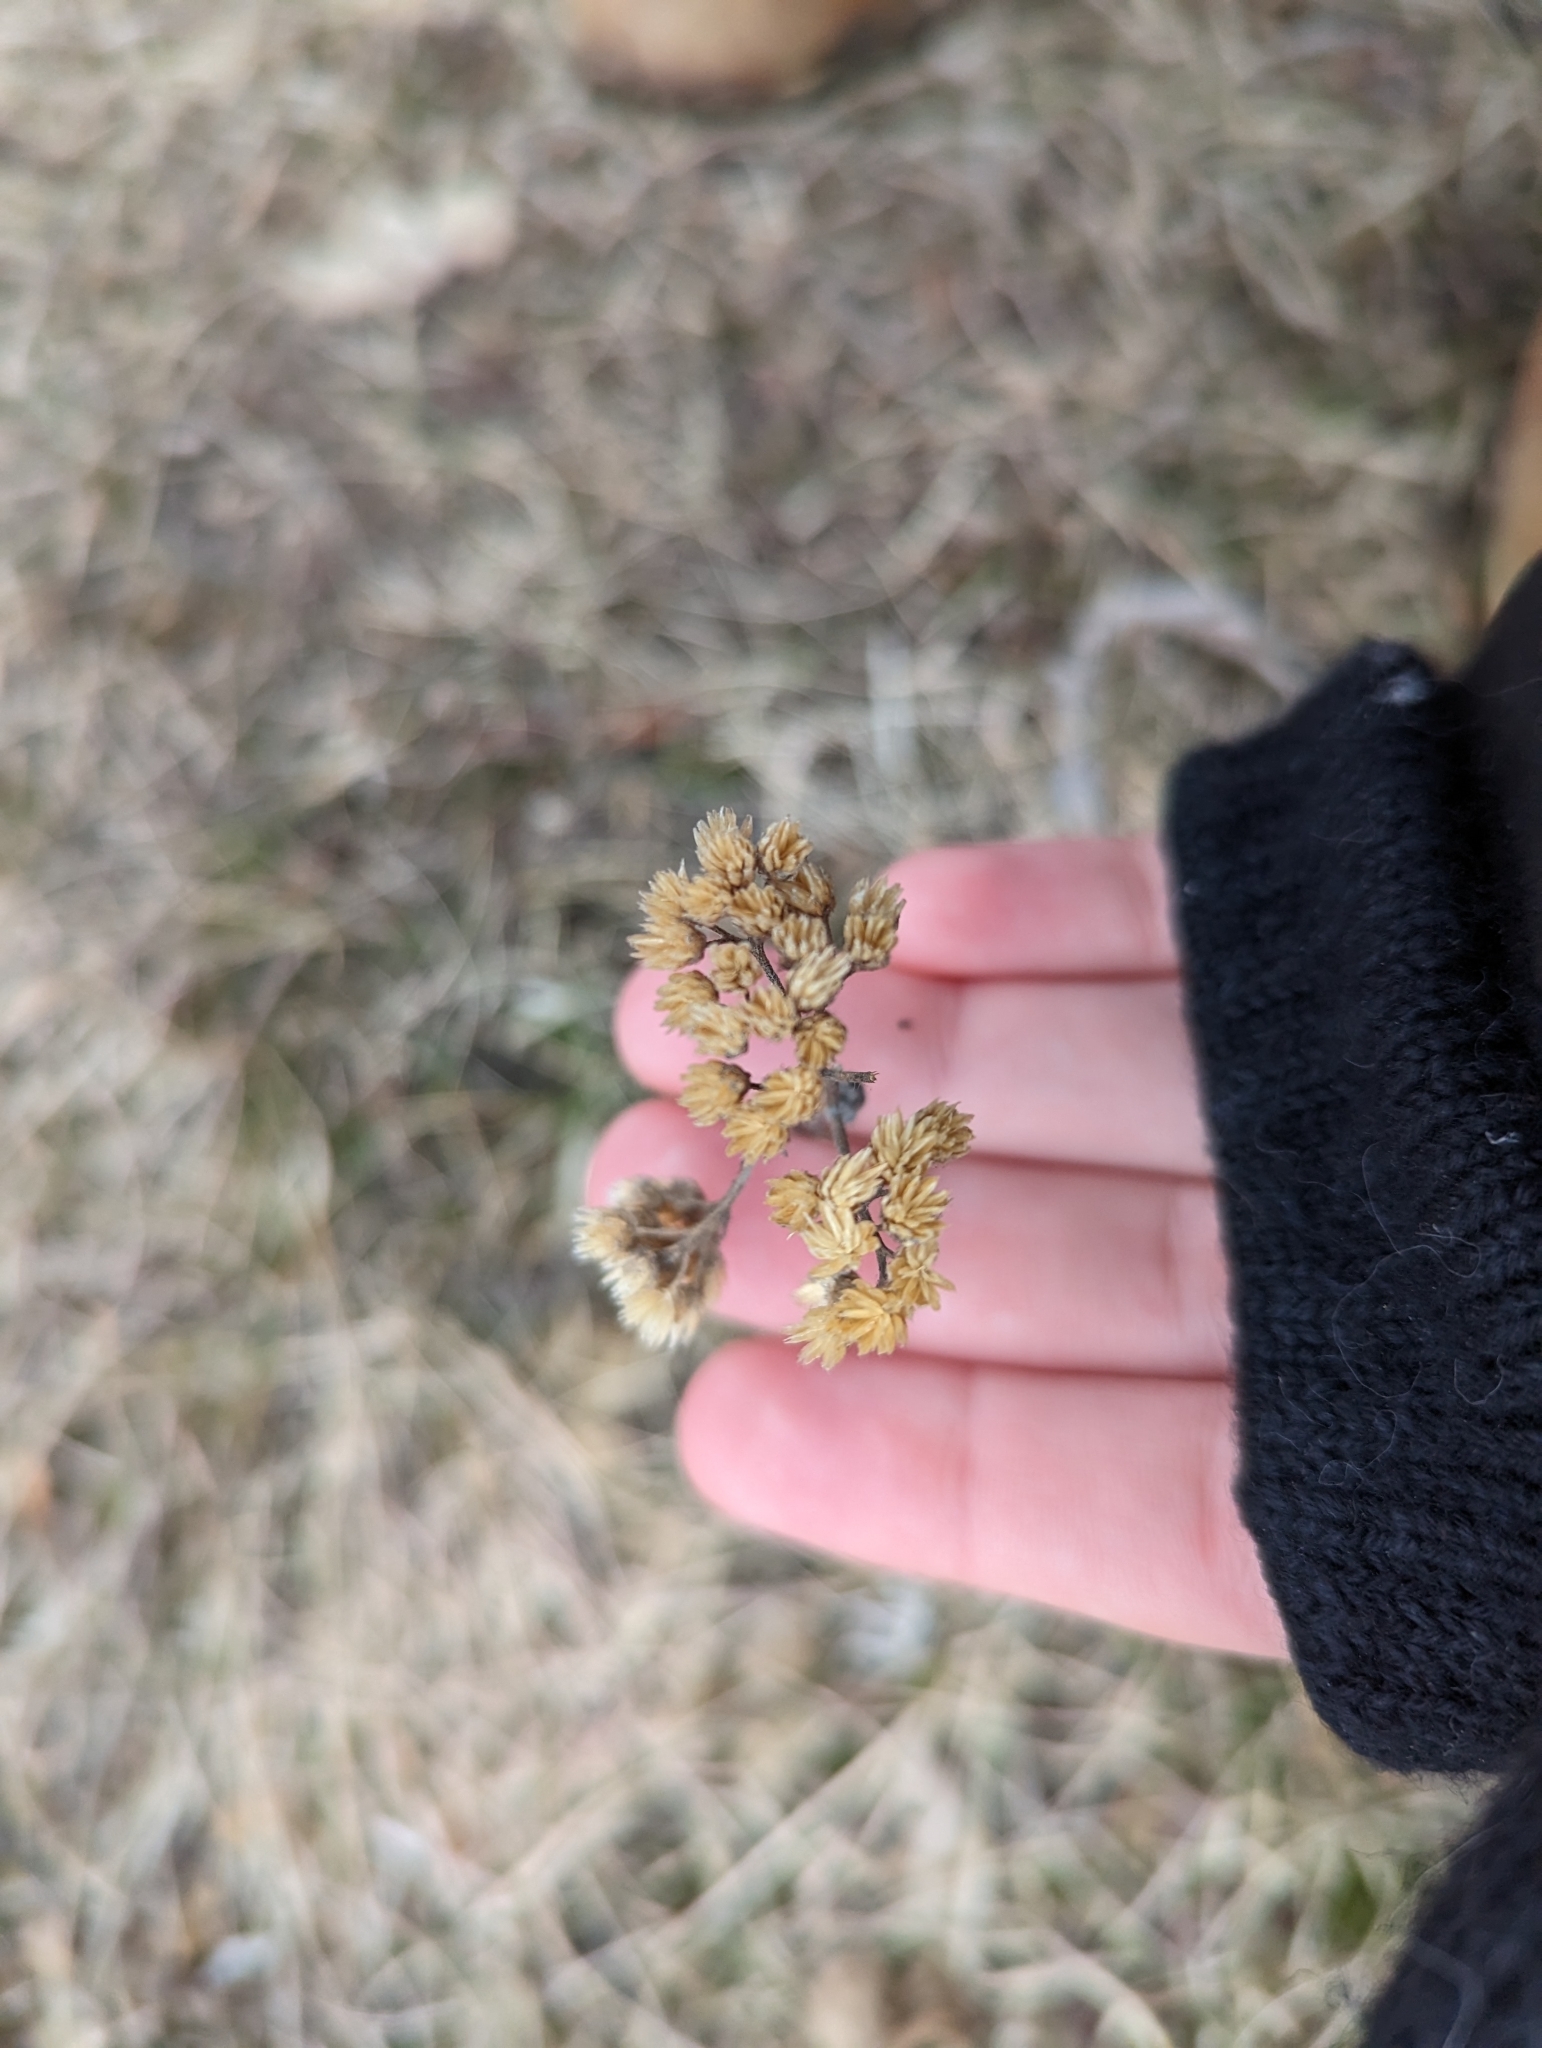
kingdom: Plantae
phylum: Tracheophyta
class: Magnoliopsida
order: Asterales
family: Asteraceae
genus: Achillea
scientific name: Achillea millefolium
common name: Yarrow
